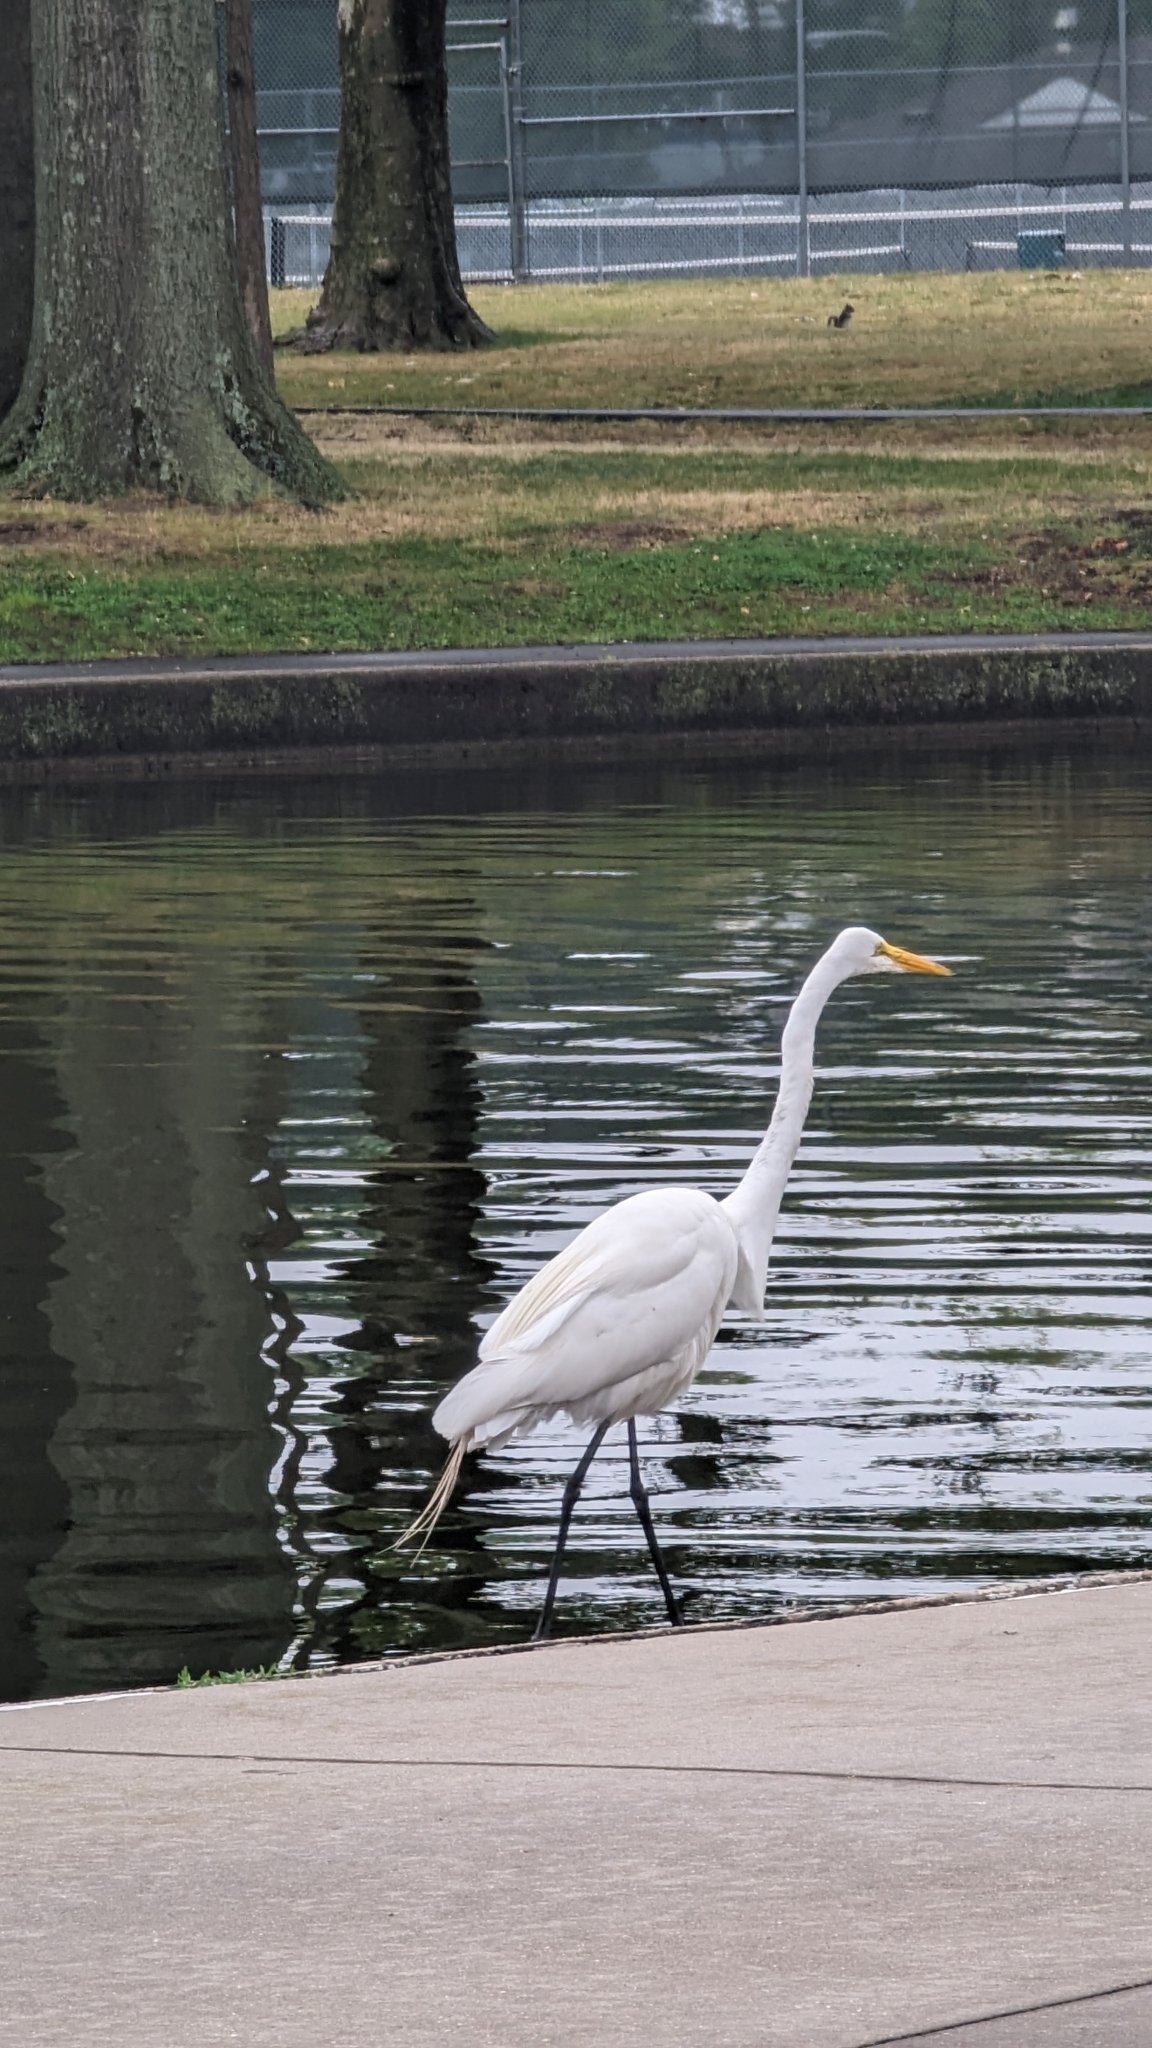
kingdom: Animalia
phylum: Chordata
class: Aves
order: Pelecaniformes
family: Ardeidae
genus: Ardea
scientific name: Ardea alba
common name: Great egret
